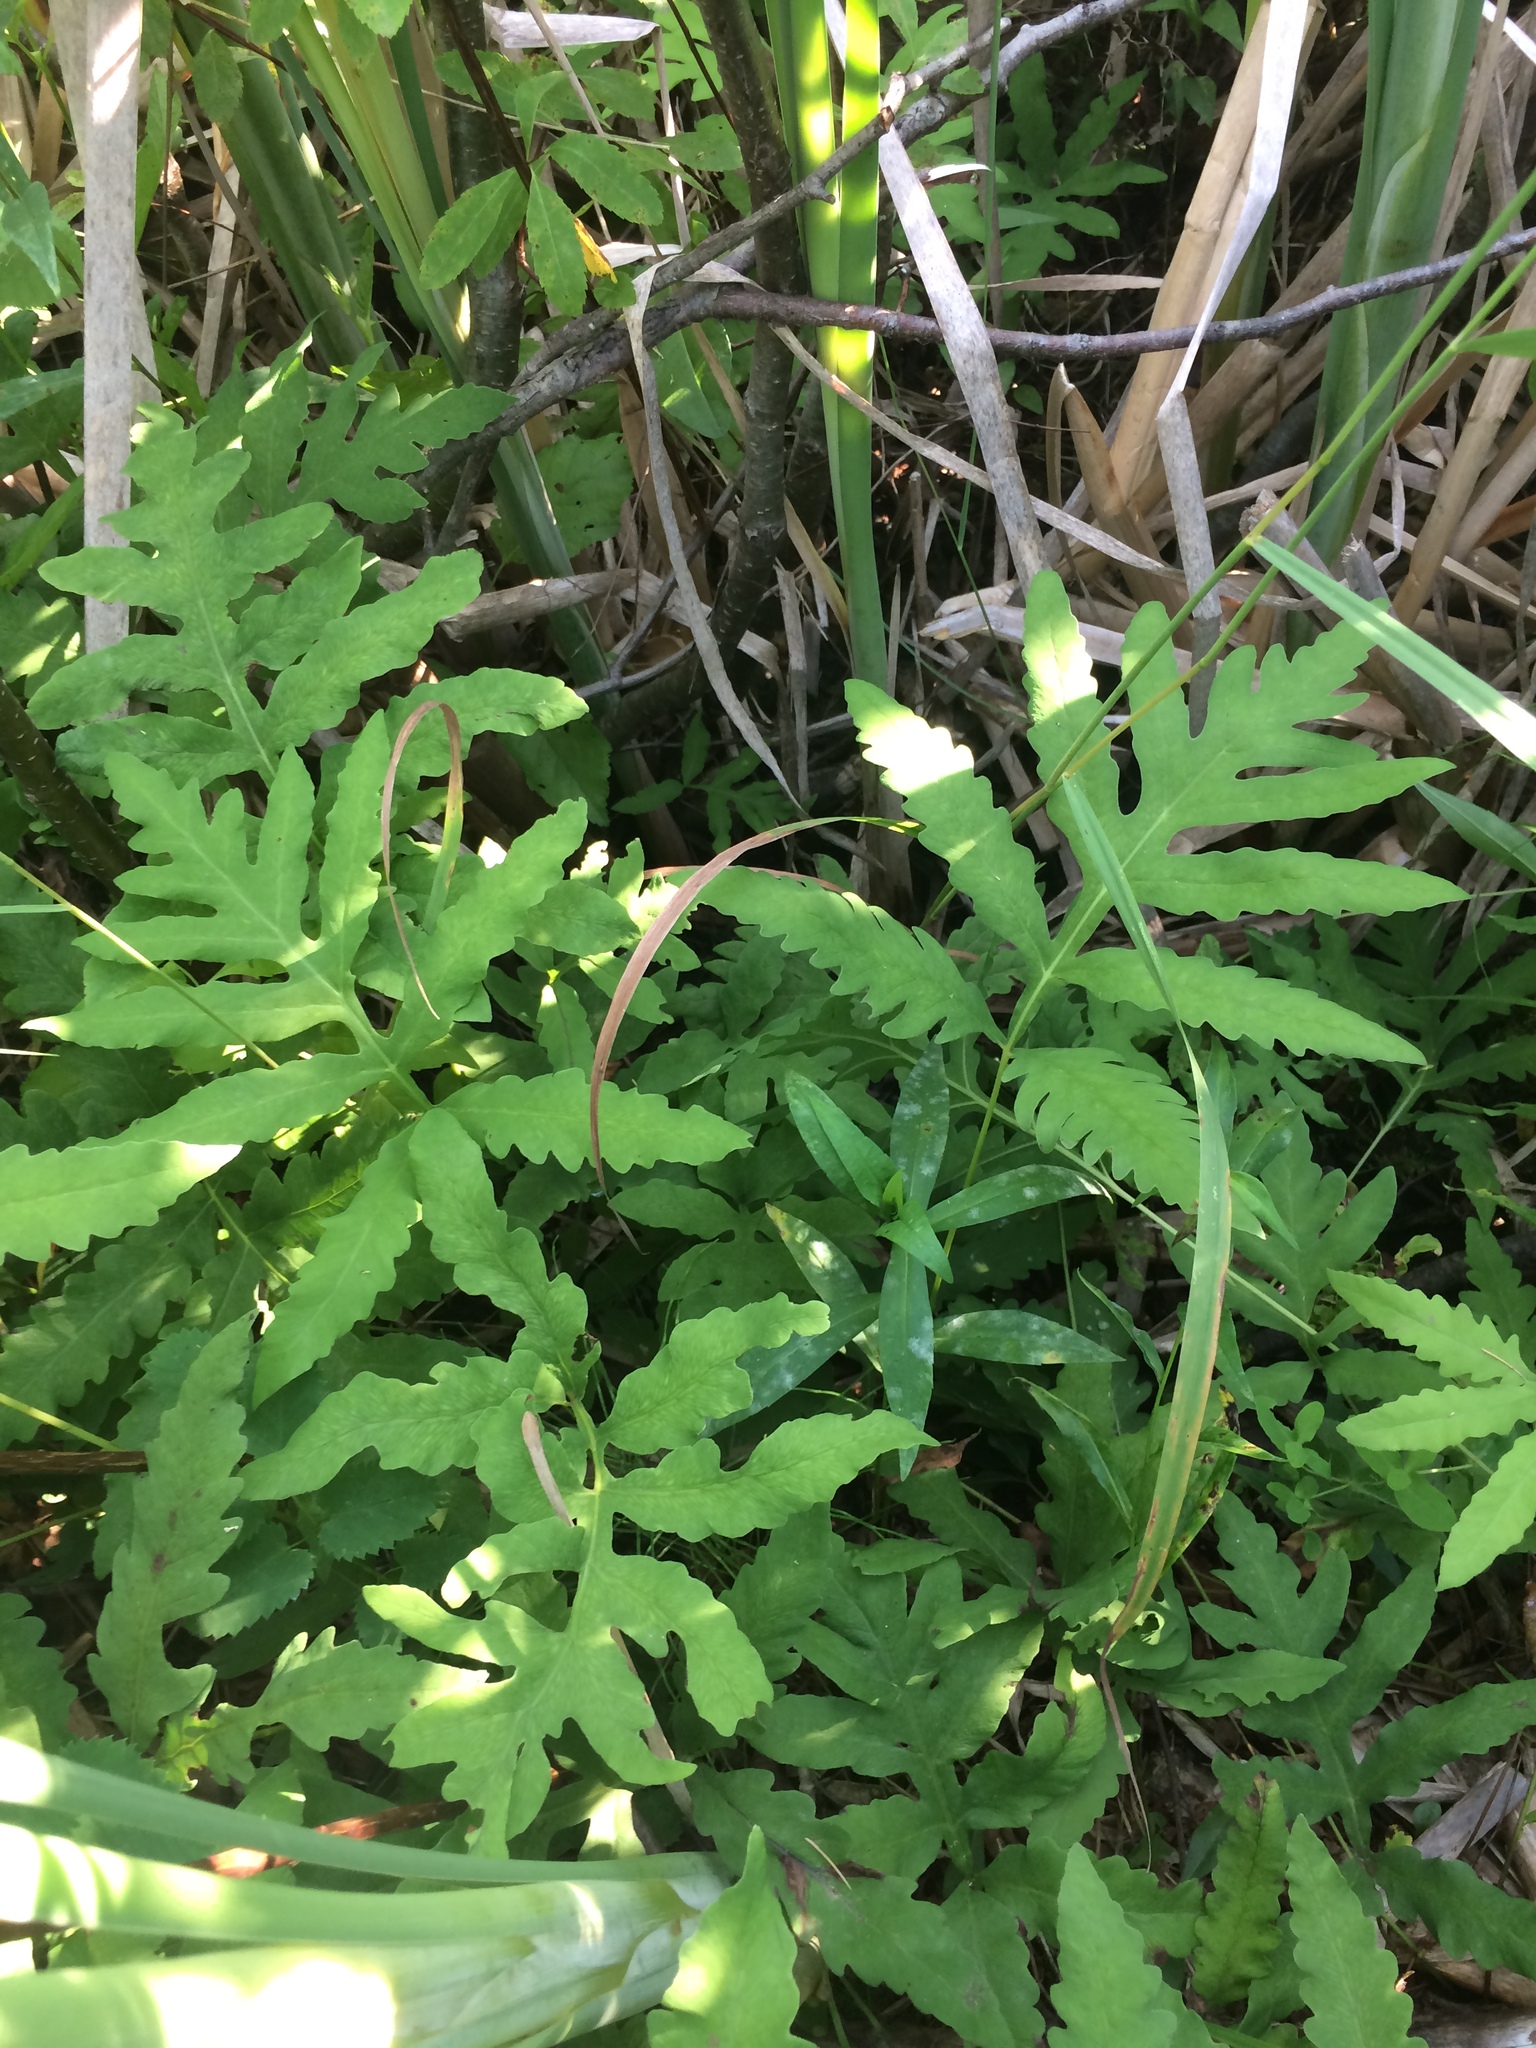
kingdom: Plantae
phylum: Tracheophyta
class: Polypodiopsida
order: Polypodiales
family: Onocleaceae
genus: Onoclea
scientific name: Onoclea sensibilis
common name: Sensitive fern
